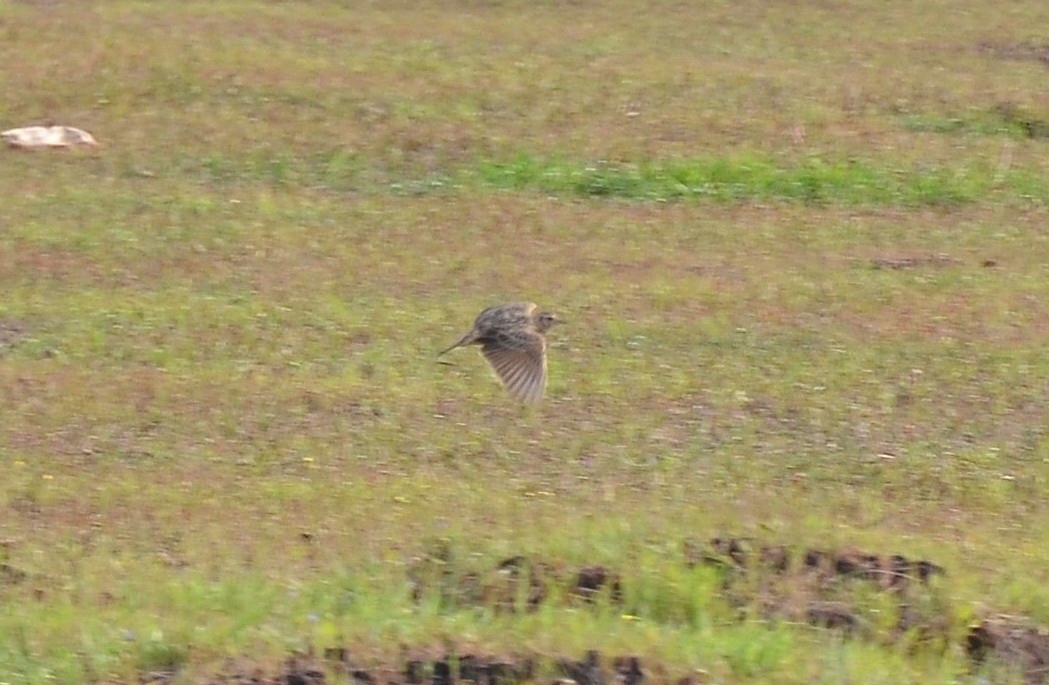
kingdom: Animalia
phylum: Chordata
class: Aves
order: Passeriformes
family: Alaudidae
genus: Alauda
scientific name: Alauda gulgula
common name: Oriental skylark
